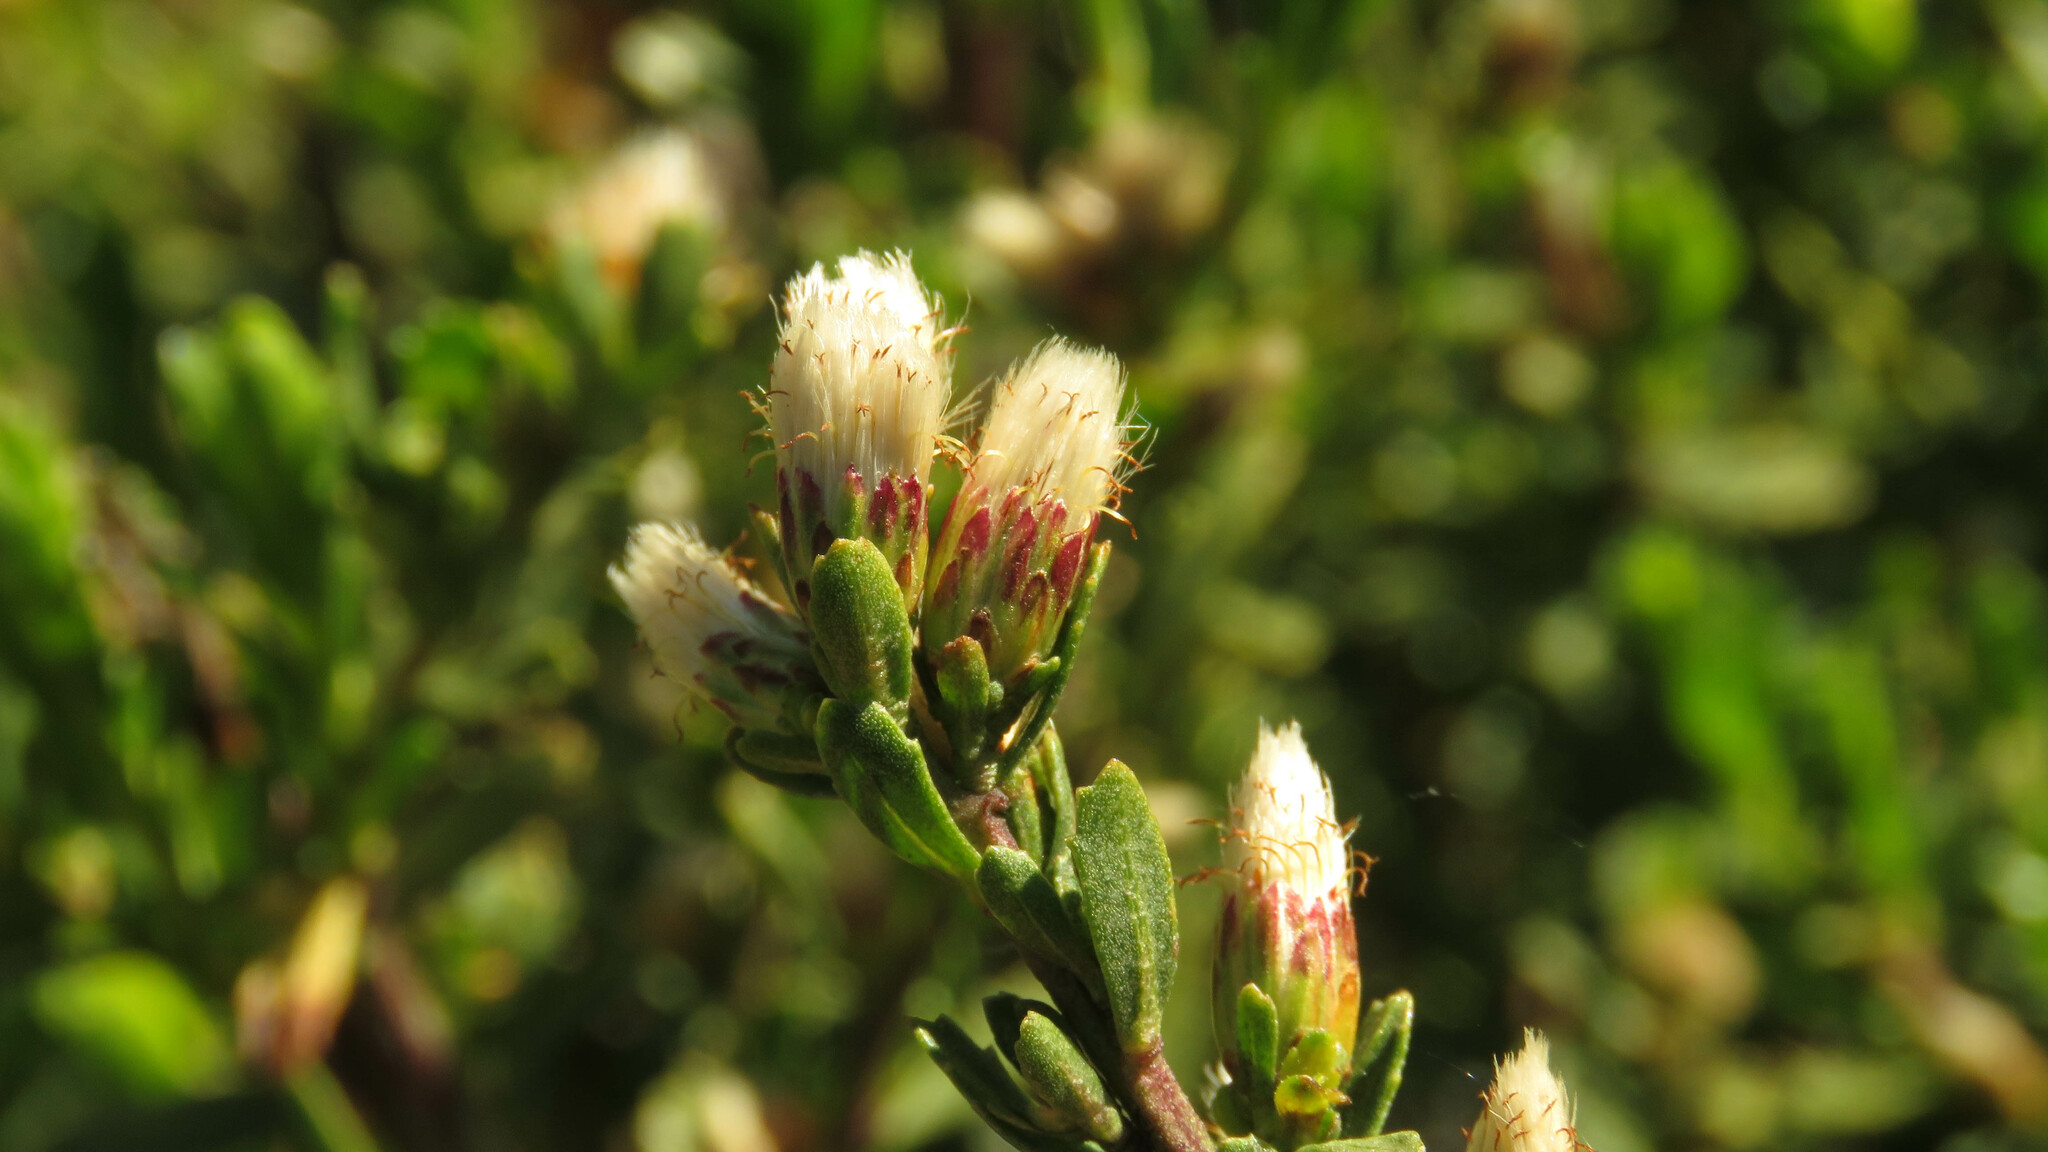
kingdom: Plantae
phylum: Tracheophyta
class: Magnoliopsida
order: Asterales
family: Asteraceae
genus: Baccharis
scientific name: Baccharis neaei
